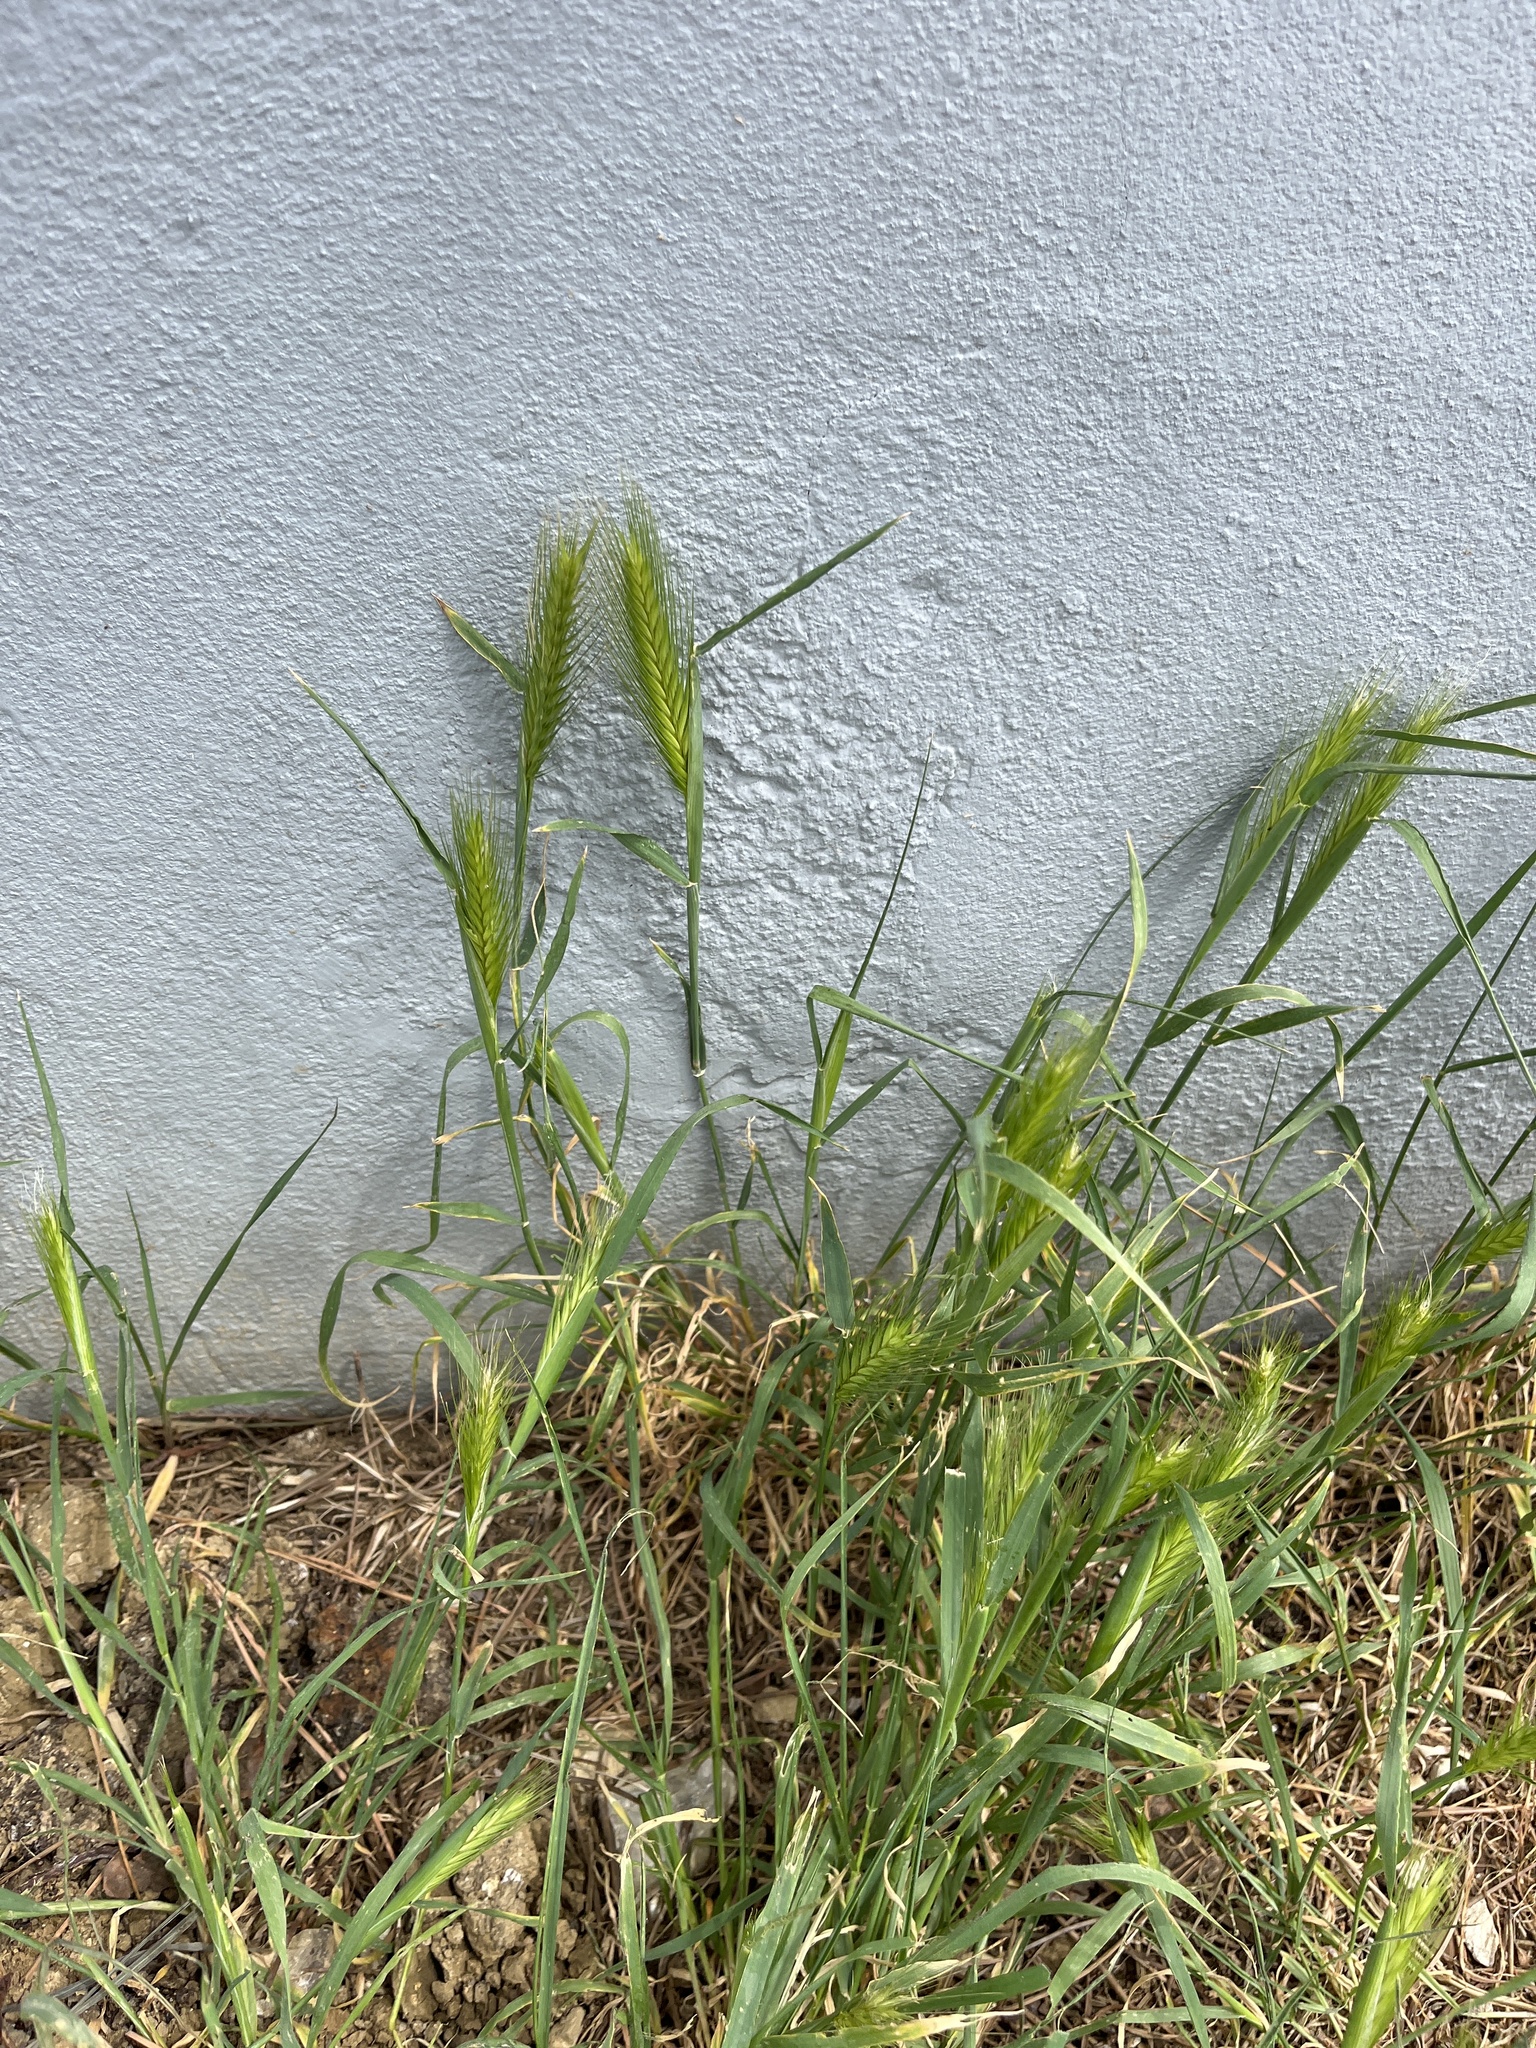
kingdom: Plantae
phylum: Tracheophyta
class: Liliopsida
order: Poales
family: Poaceae
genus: Hordeum
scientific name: Hordeum murinum
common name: Wall barley
